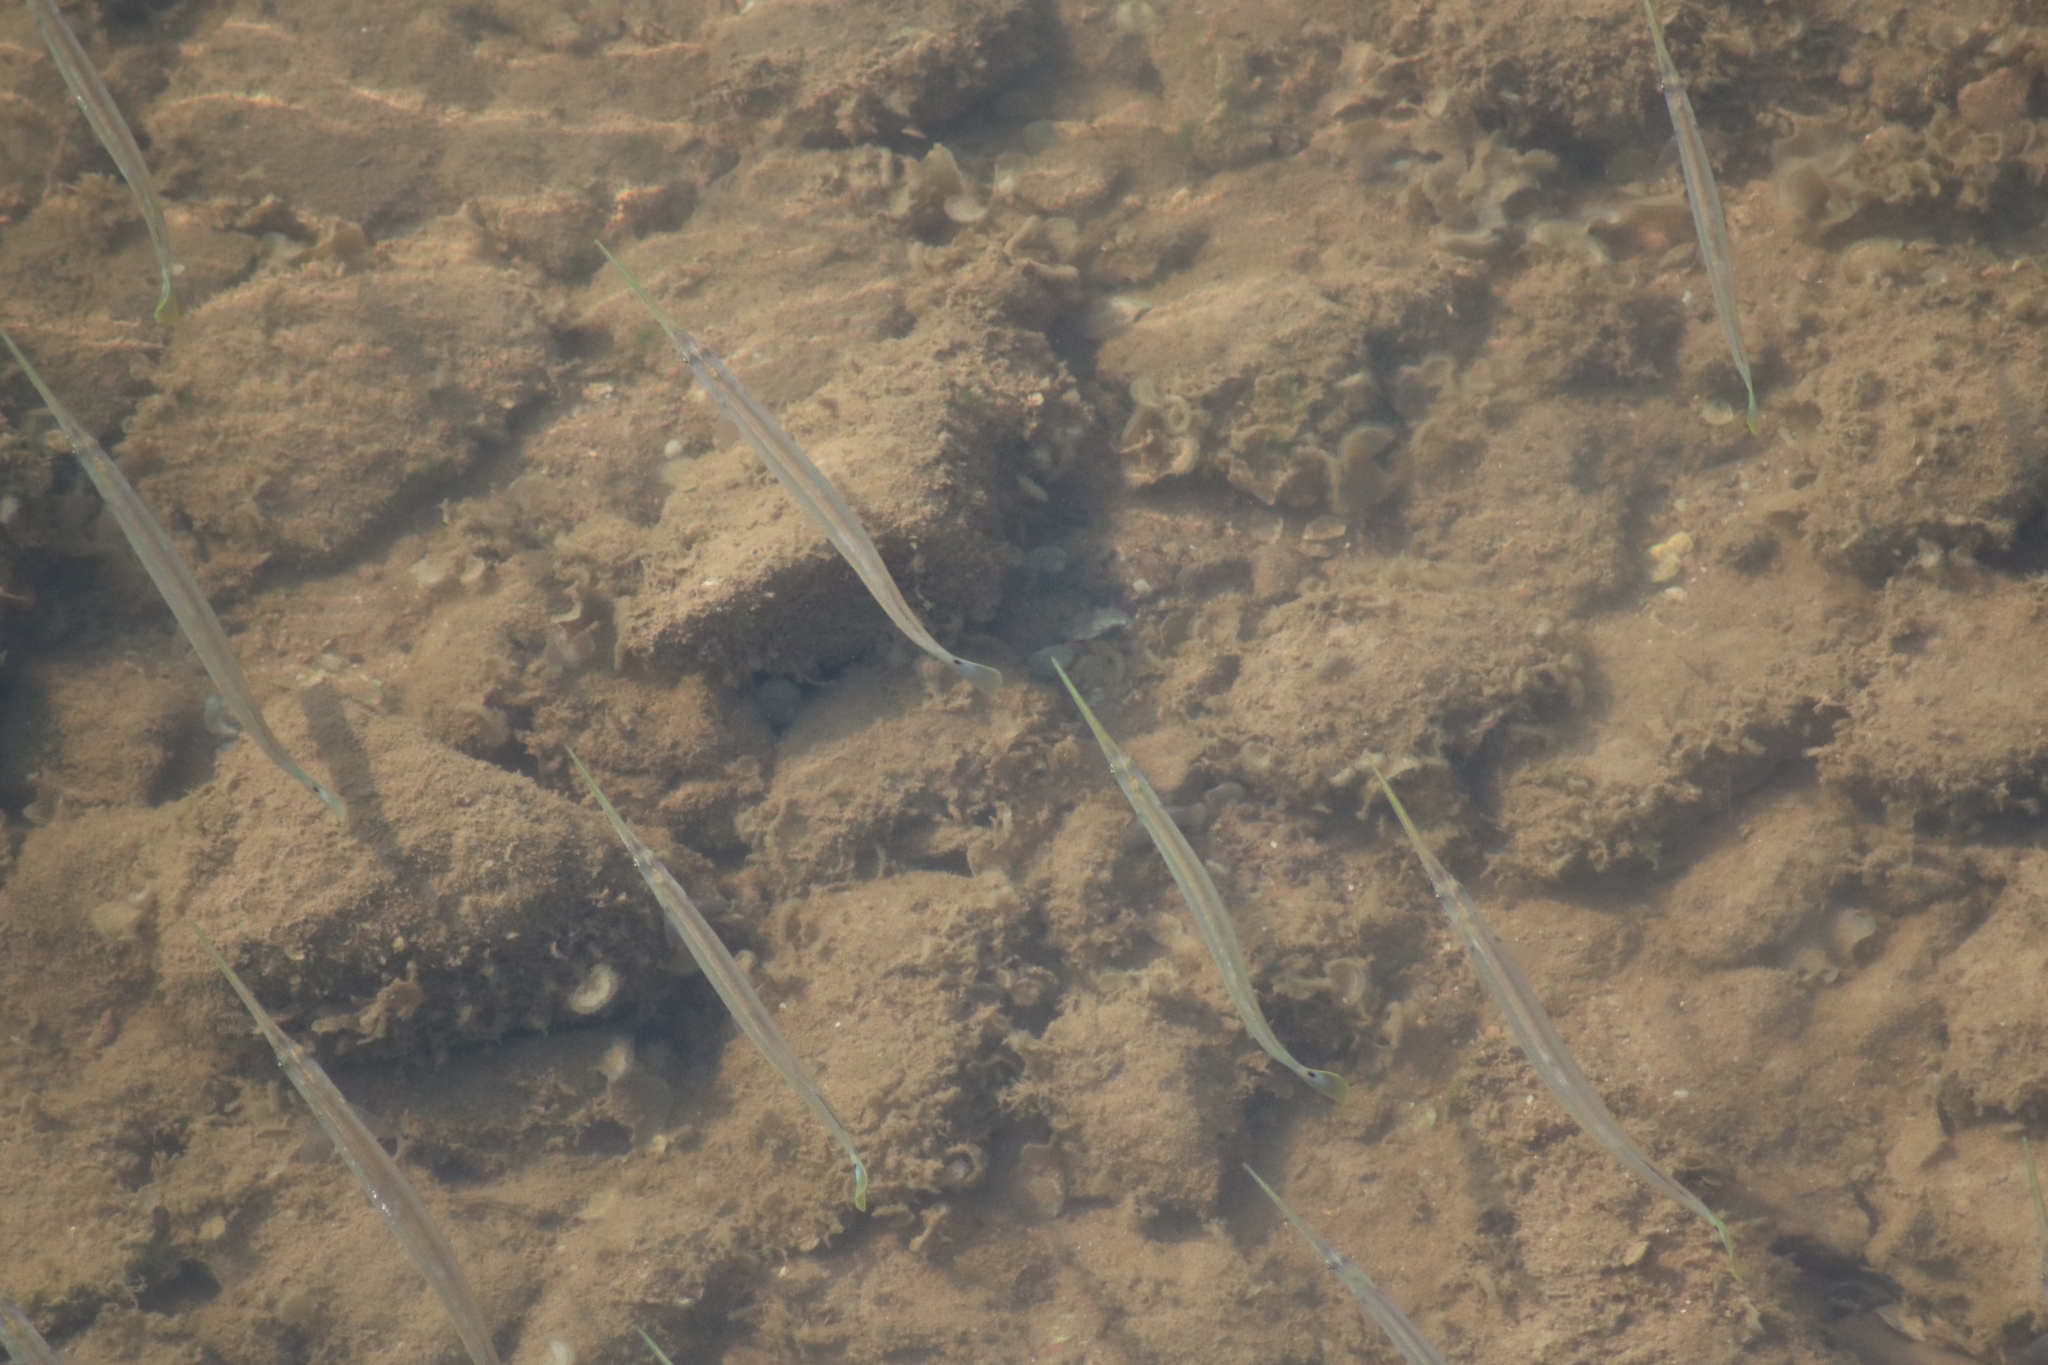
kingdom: Animalia
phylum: Chordata
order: Beloniformes
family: Belonidae
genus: Strongylura
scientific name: Strongylura strongylura
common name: Spottail needlefish
